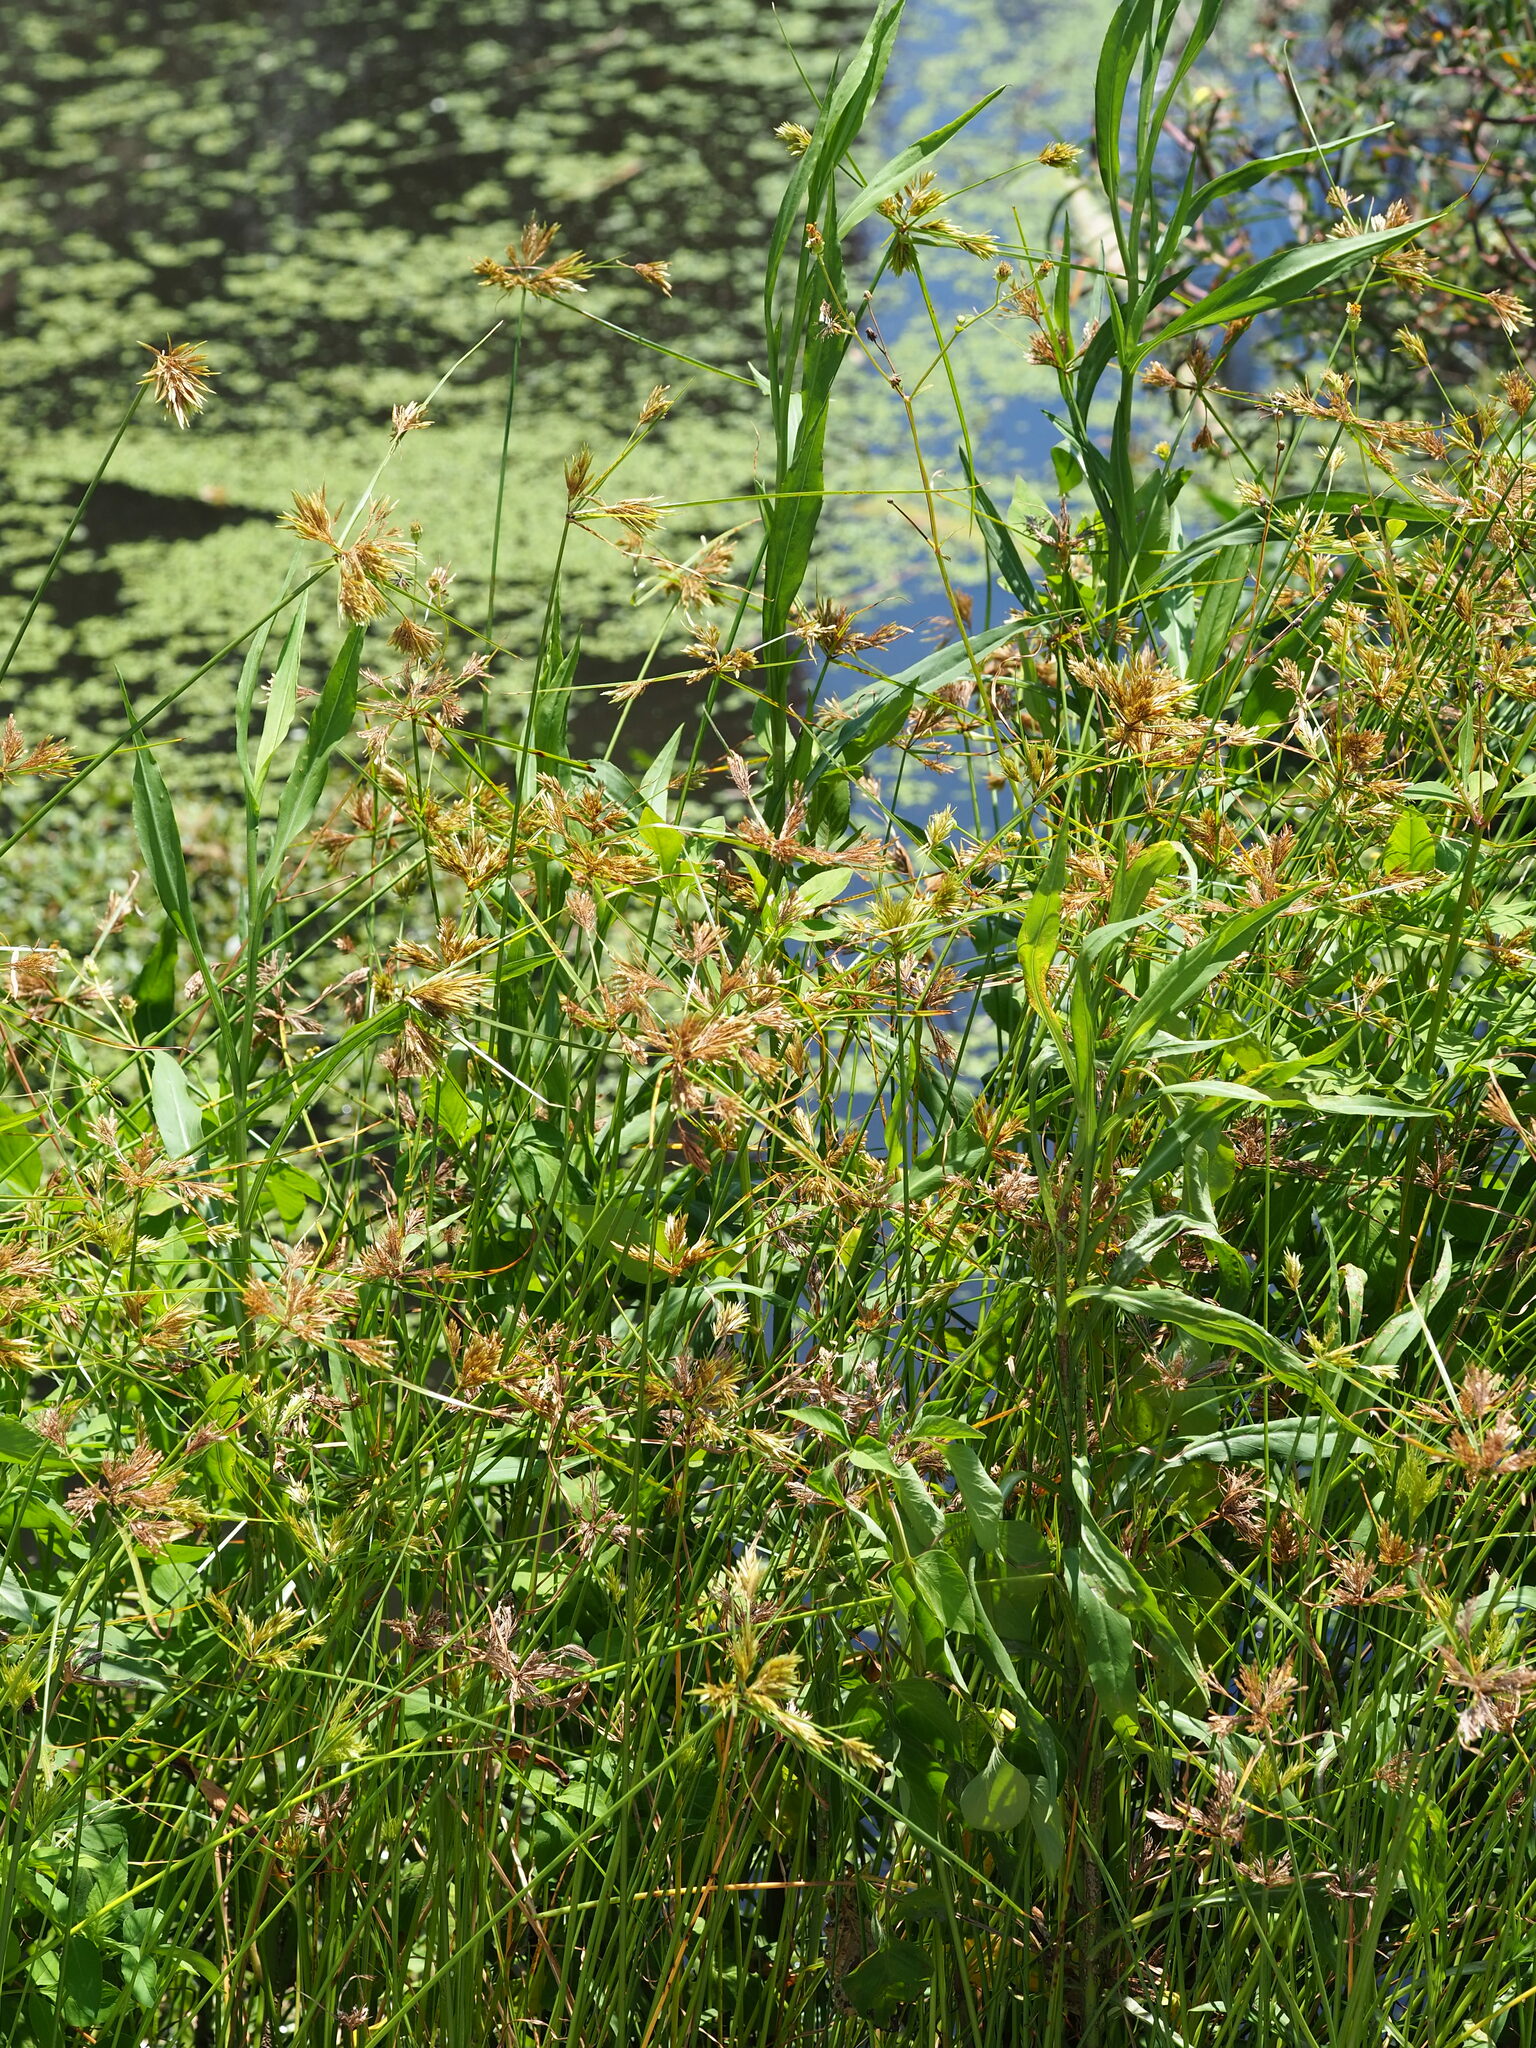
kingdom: Plantae
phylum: Tracheophyta
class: Liliopsida
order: Poales
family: Cyperaceae
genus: Cyperus
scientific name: Cyperus polystachyos
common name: Bunchy flat sedge
